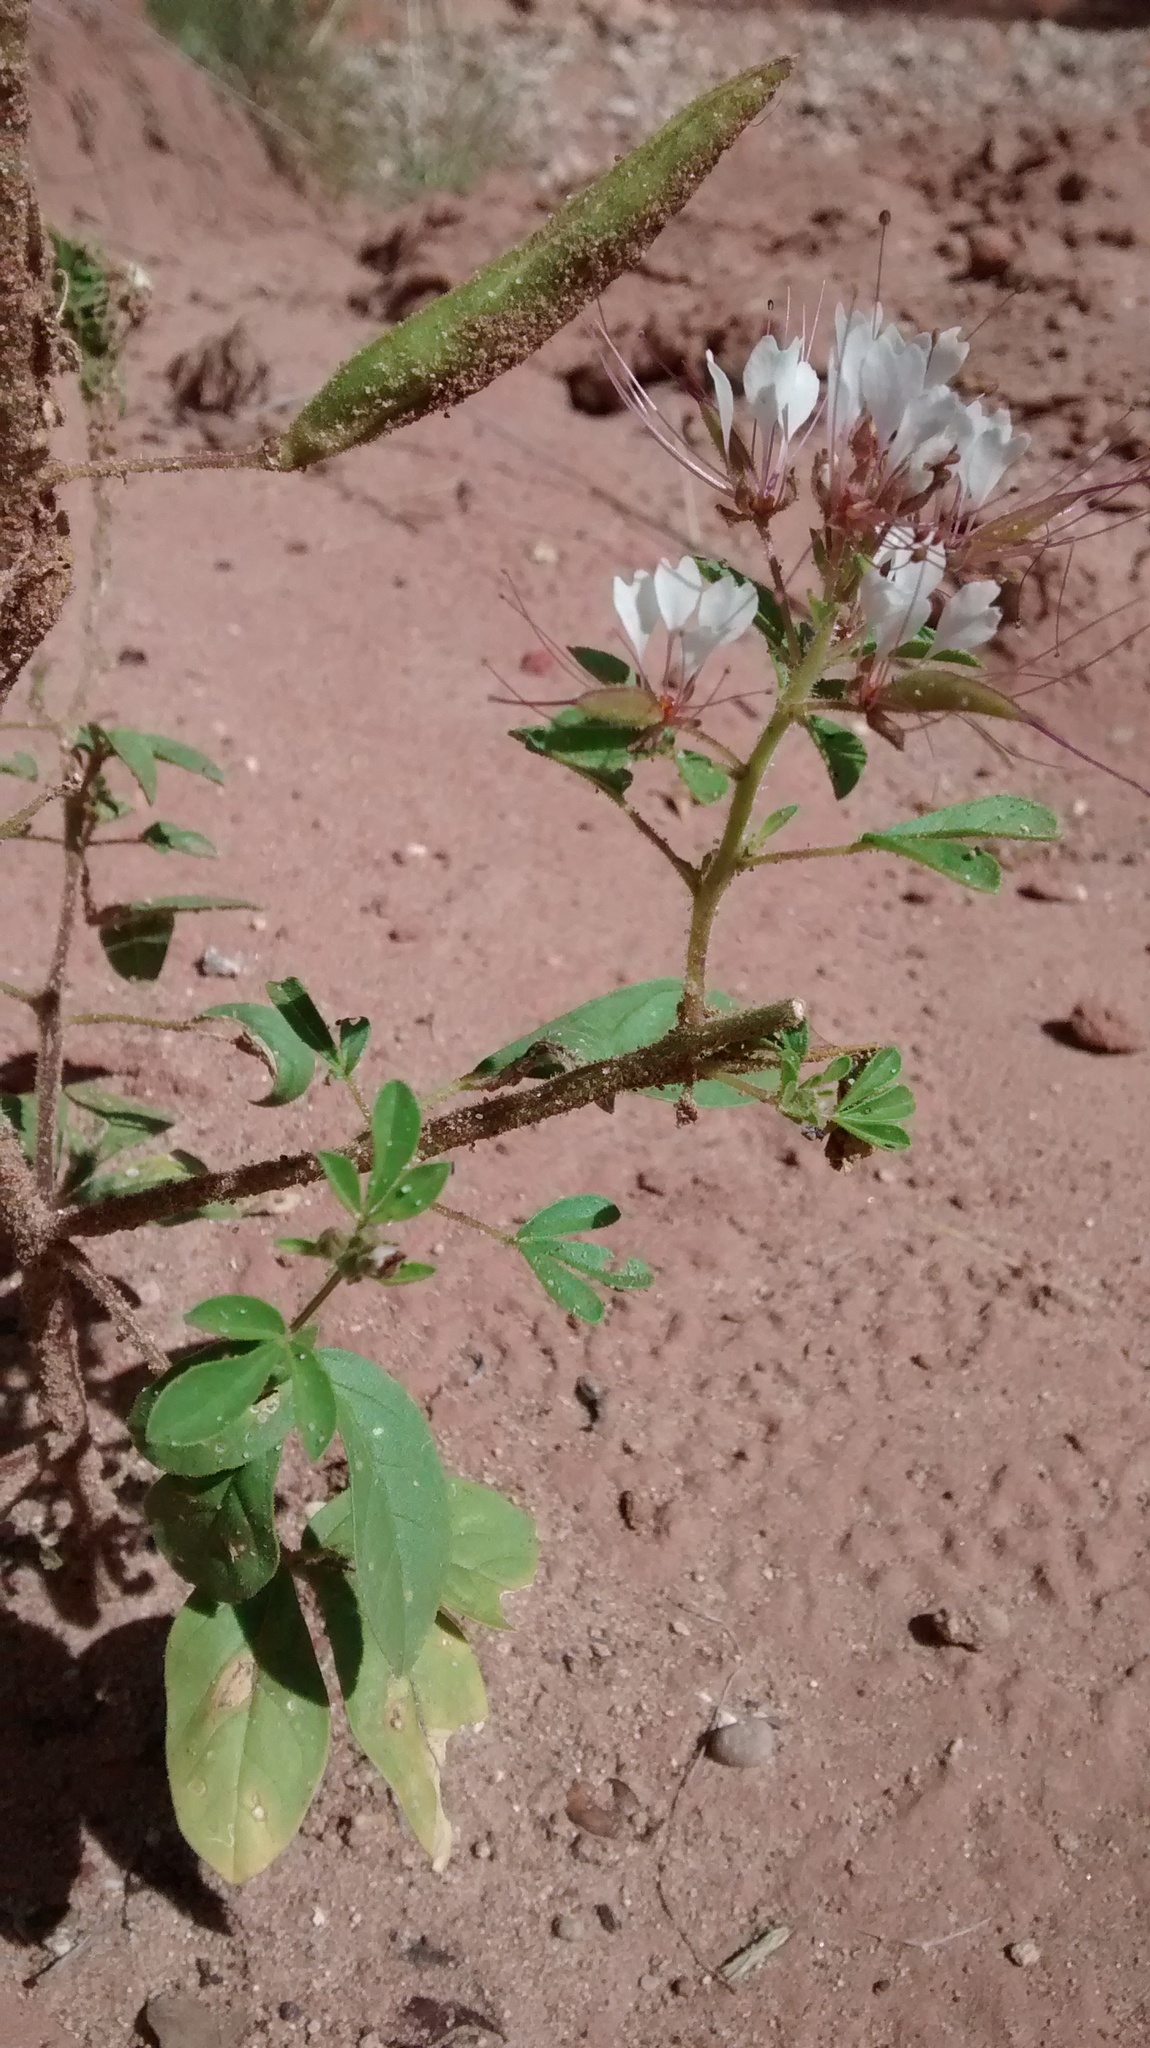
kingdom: Plantae
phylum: Tracheophyta
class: Magnoliopsida
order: Brassicales
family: Cleomaceae
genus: Polanisia
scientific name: Polanisia dodecandra
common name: Clammyweed
